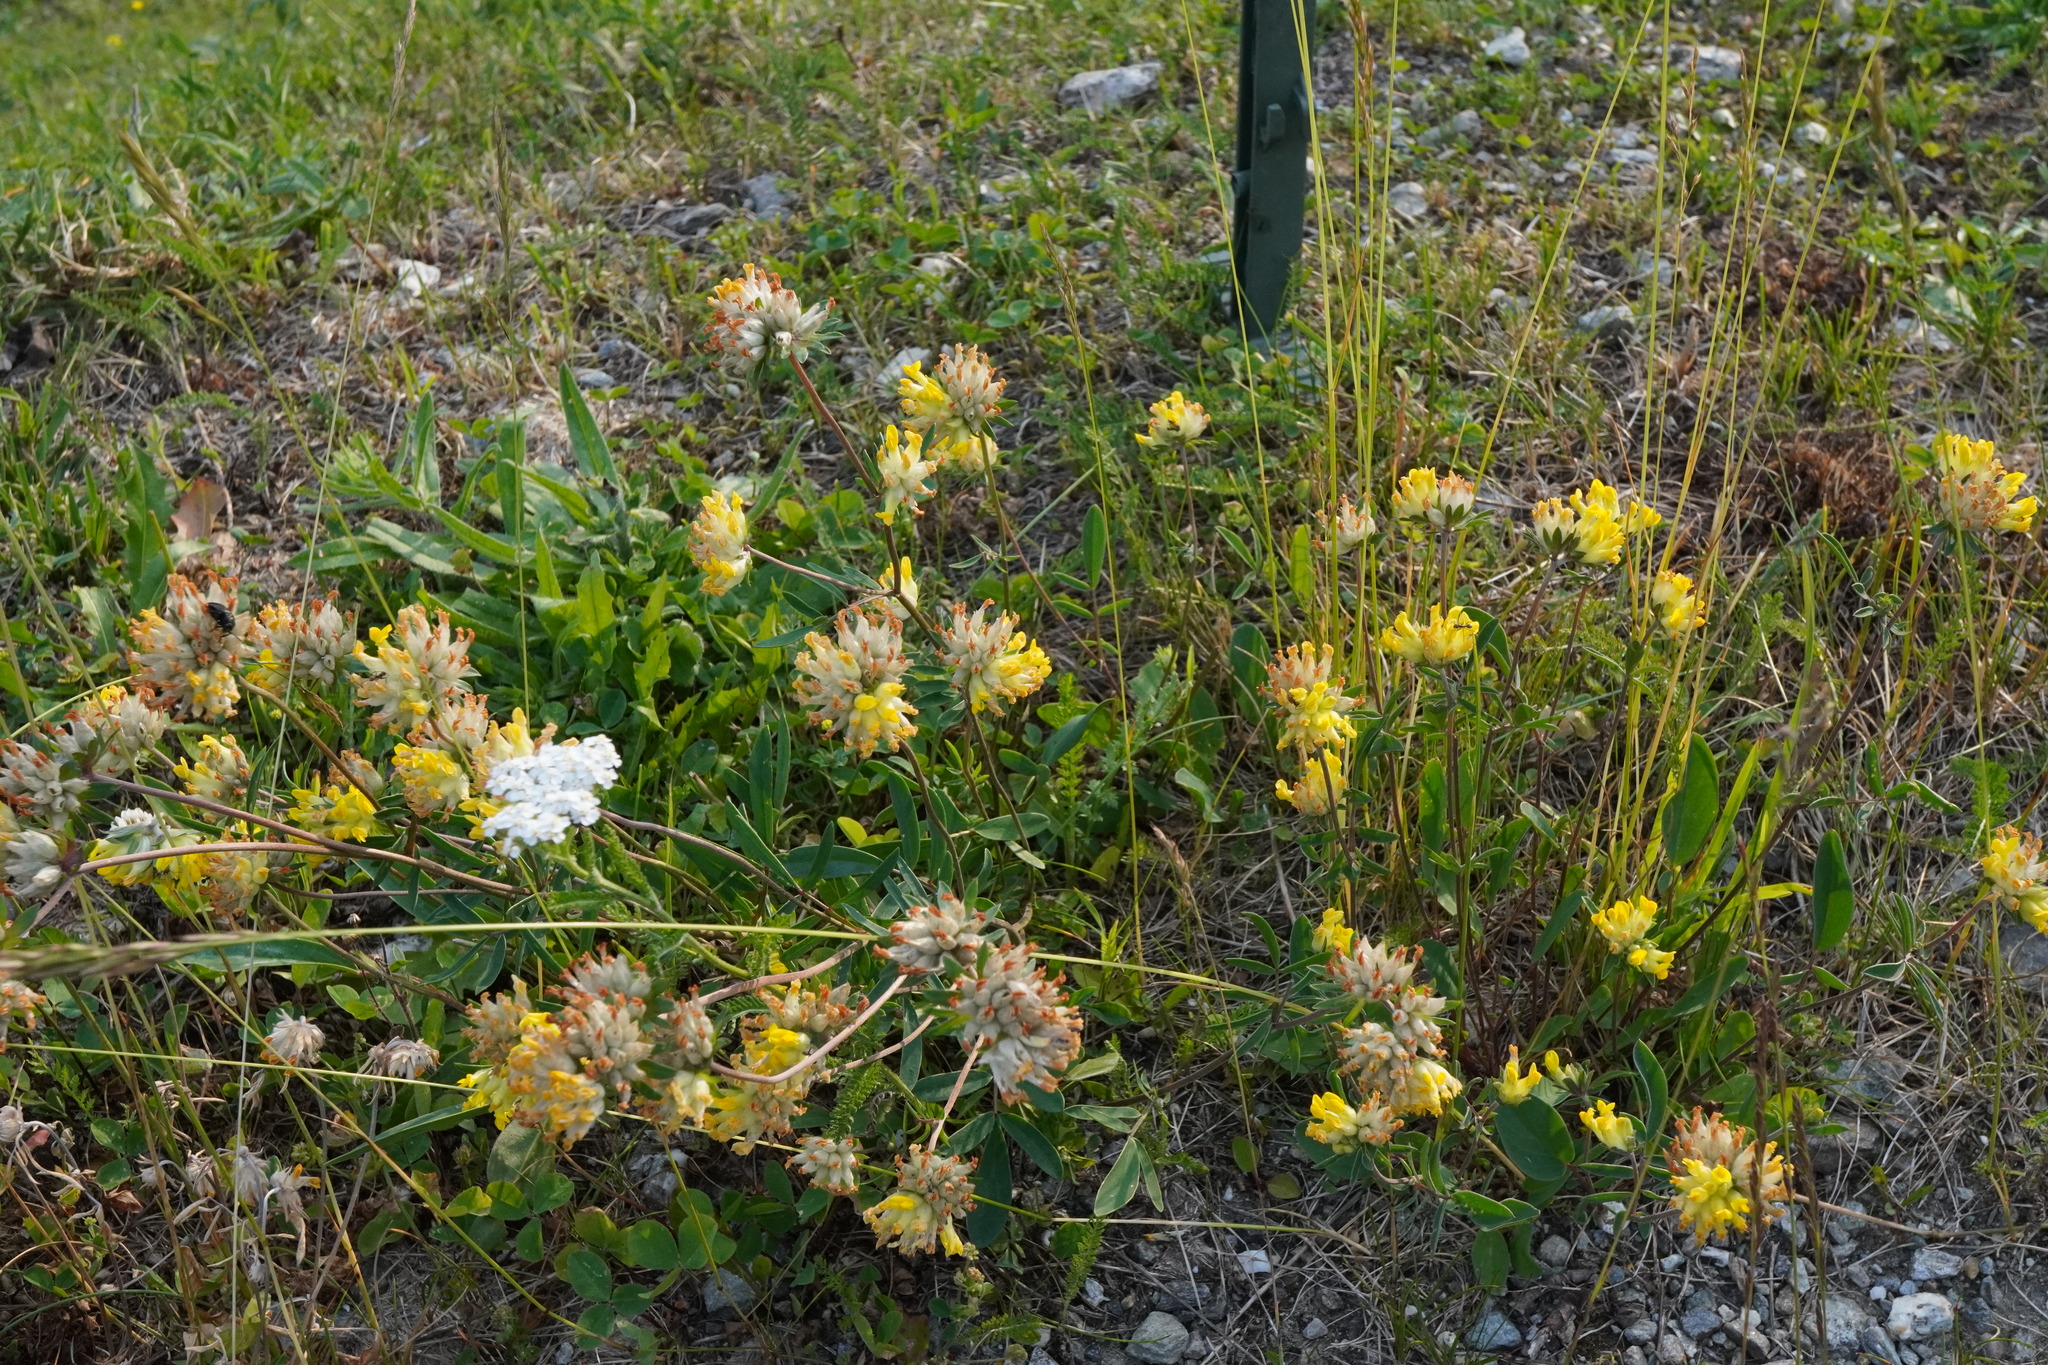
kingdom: Plantae
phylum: Tracheophyta
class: Magnoliopsida
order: Fabales
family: Fabaceae
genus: Anthyllis
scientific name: Anthyllis vulneraria
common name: Kidney vetch
